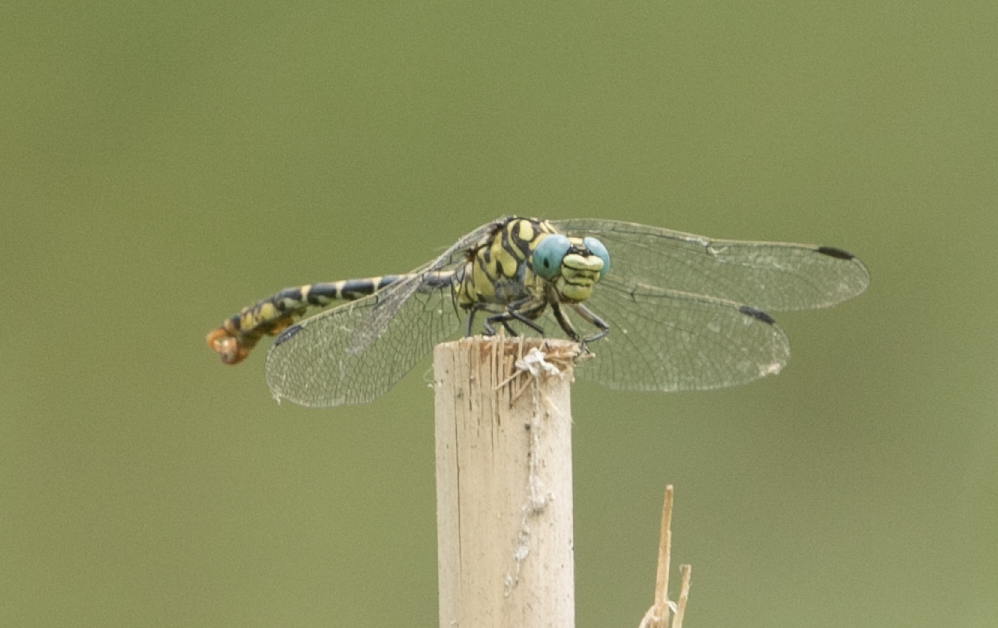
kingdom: Animalia
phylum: Arthropoda
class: Insecta
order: Odonata
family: Gomphidae
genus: Onychogomphus
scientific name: Onychogomphus forcipatus
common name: Small pincertail
